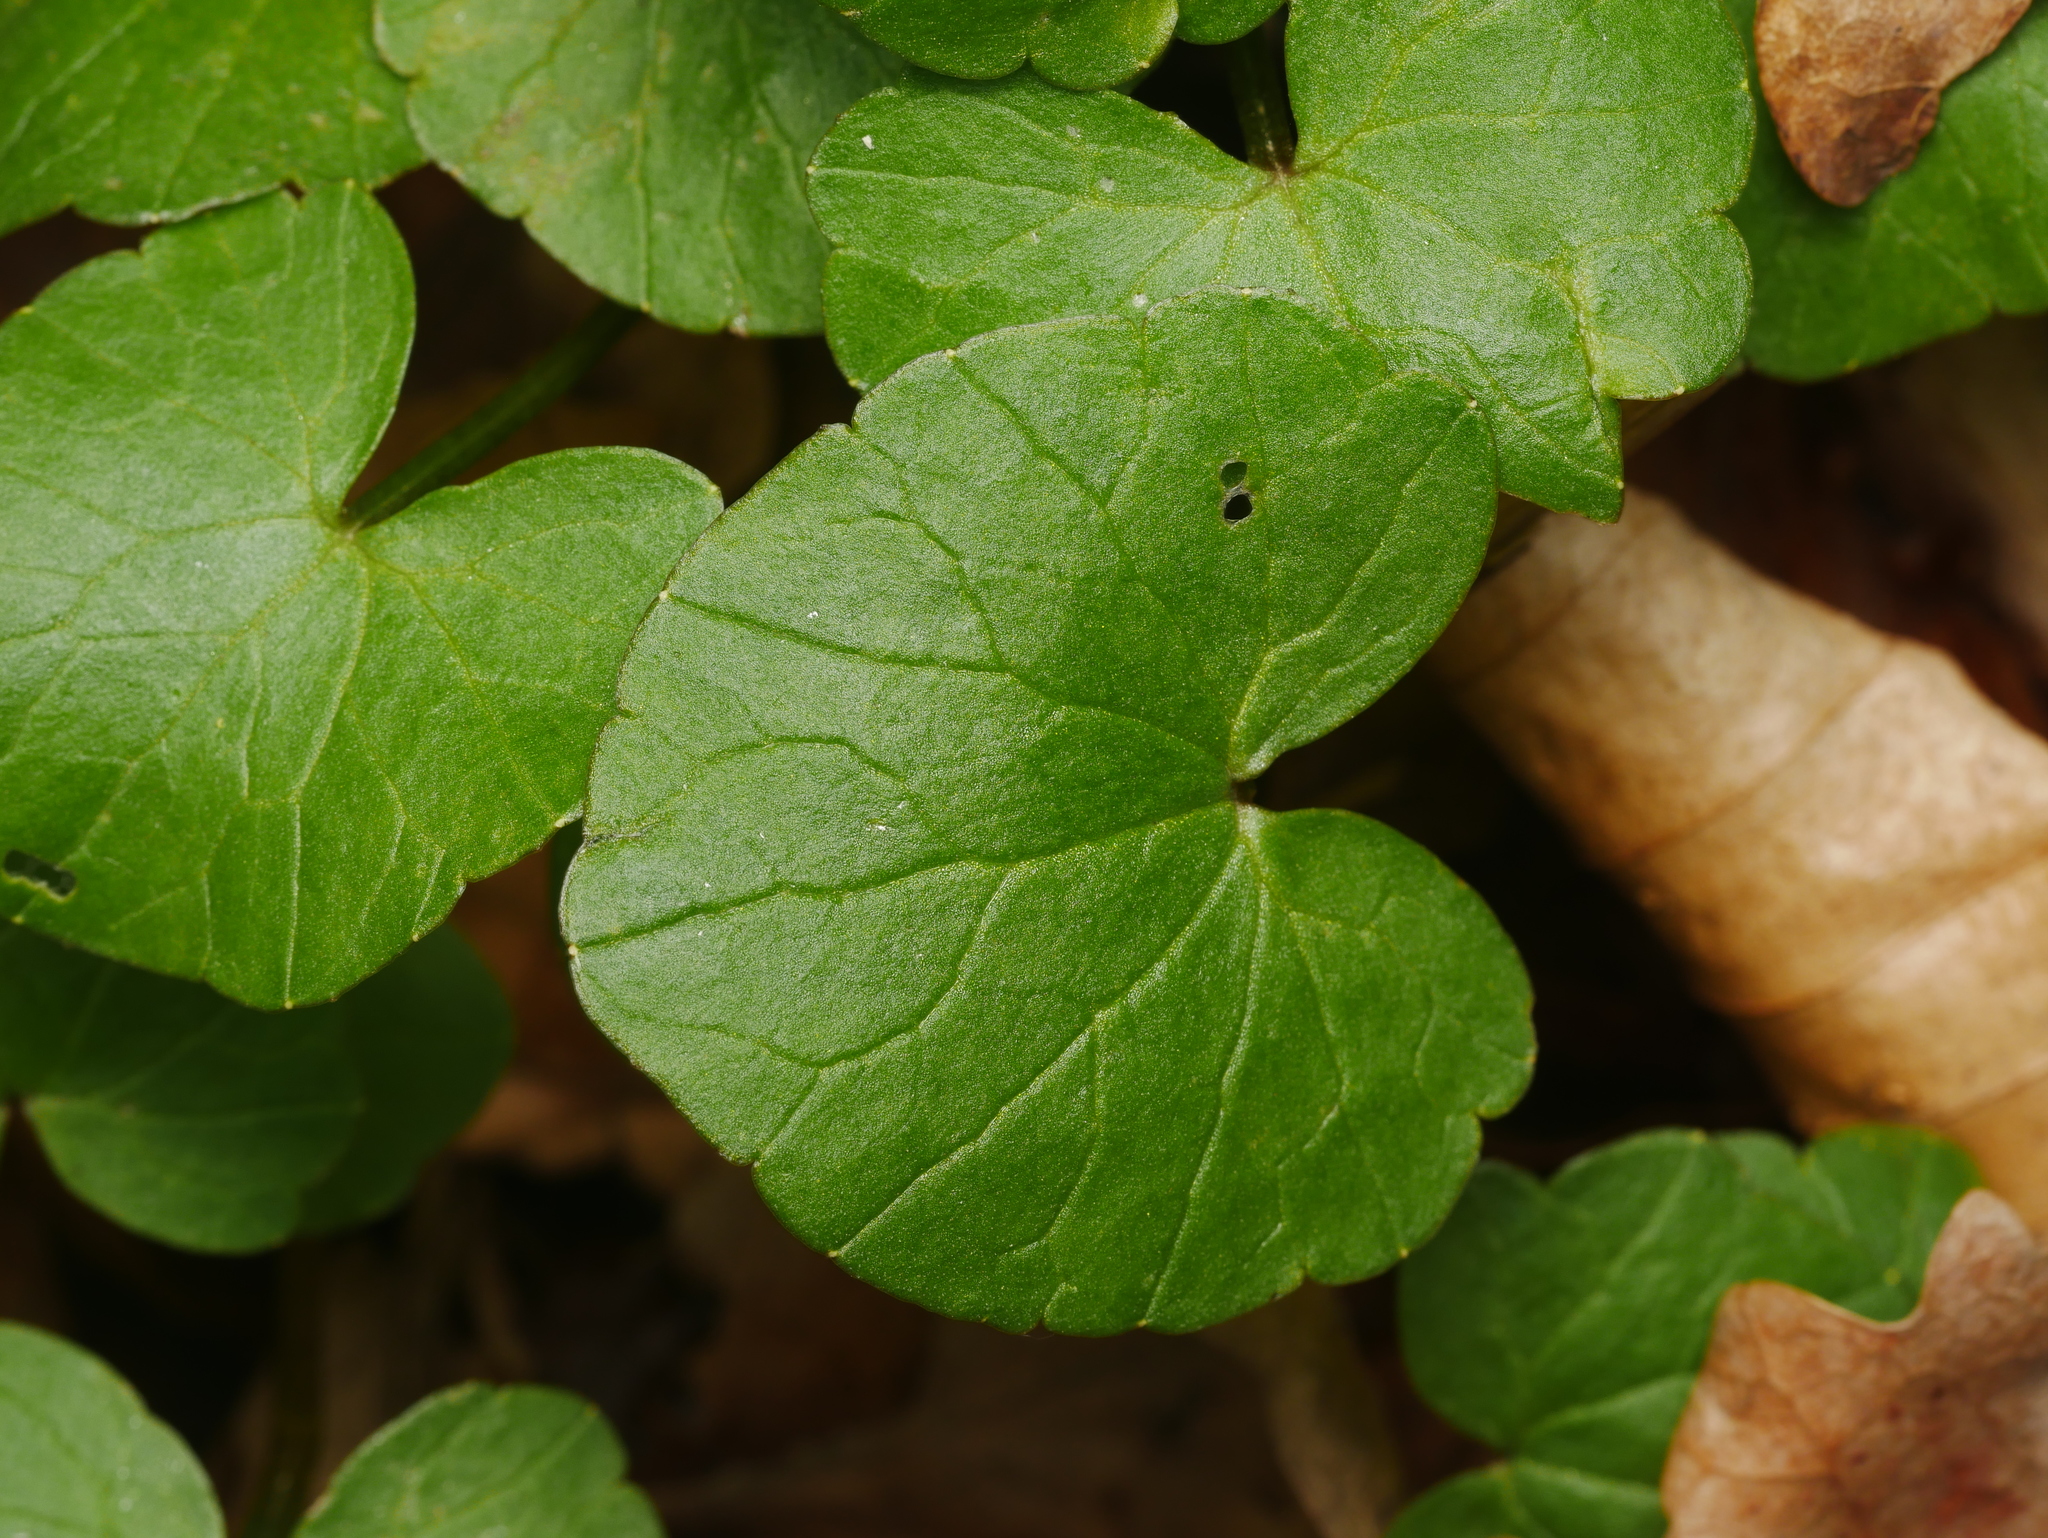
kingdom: Plantae
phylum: Tracheophyta
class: Magnoliopsida
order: Ranunculales
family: Ranunculaceae
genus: Ficaria
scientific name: Ficaria verna
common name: Lesser celandine
